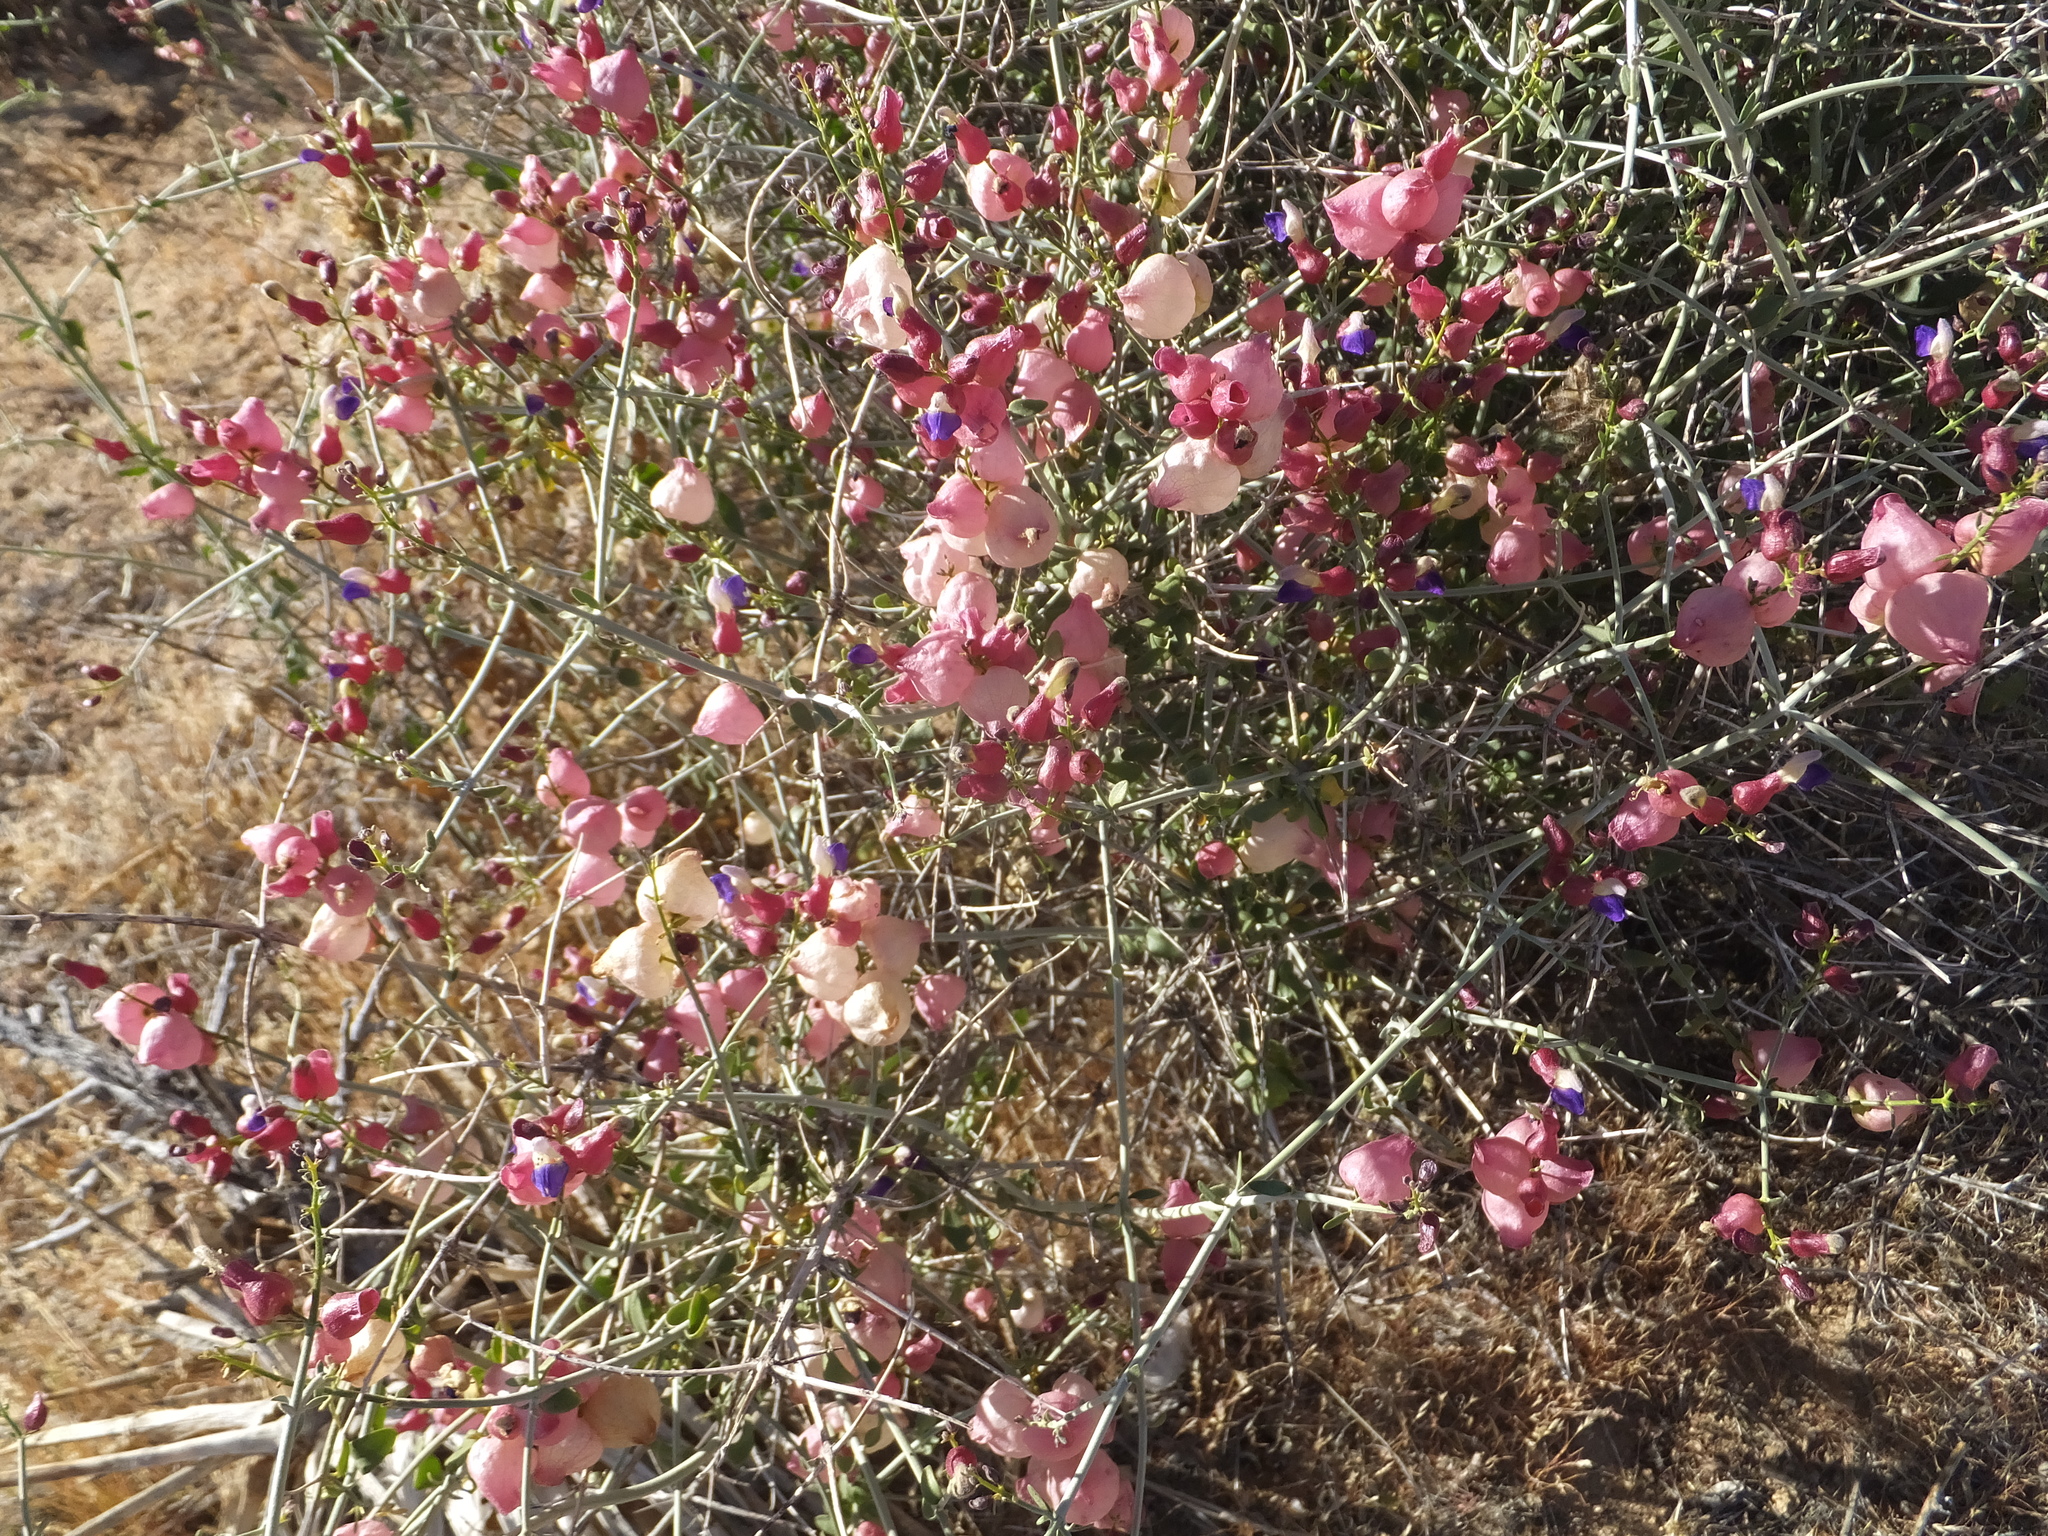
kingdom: Plantae
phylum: Tracheophyta
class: Magnoliopsida
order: Lamiales
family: Lamiaceae
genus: Scutellaria
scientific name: Scutellaria mexicana
